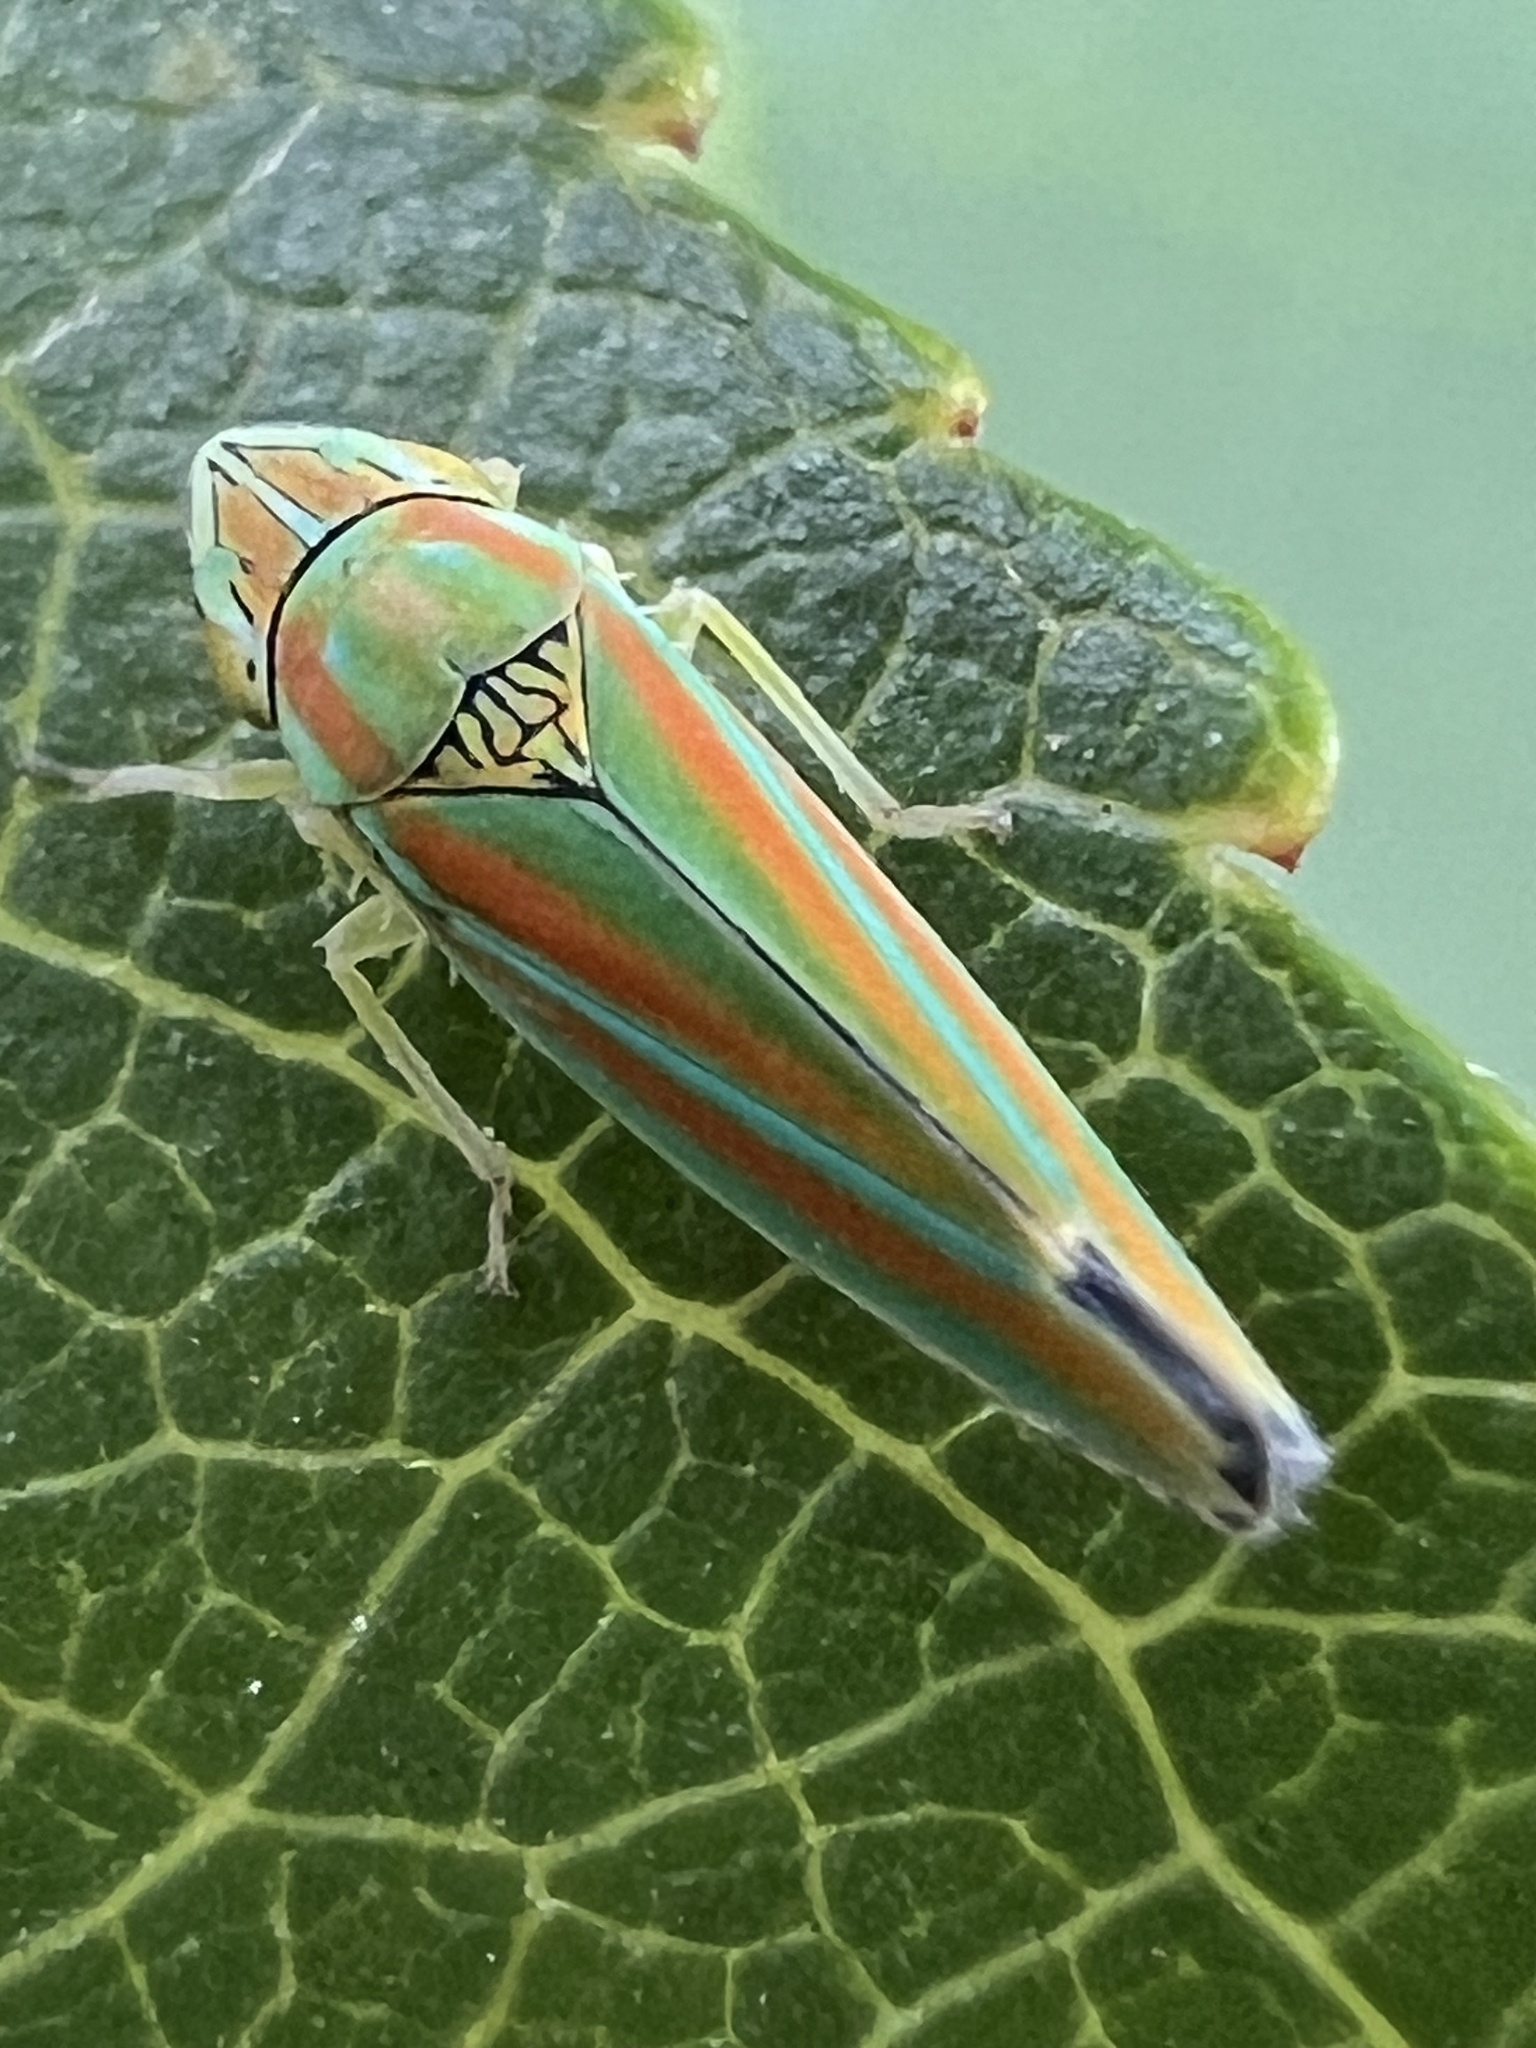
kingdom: Animalia
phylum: Arthropoda
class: Insecta
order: Hemiptera
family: Cicadellidae
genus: Graphocephala
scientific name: Graphocephala versuta
